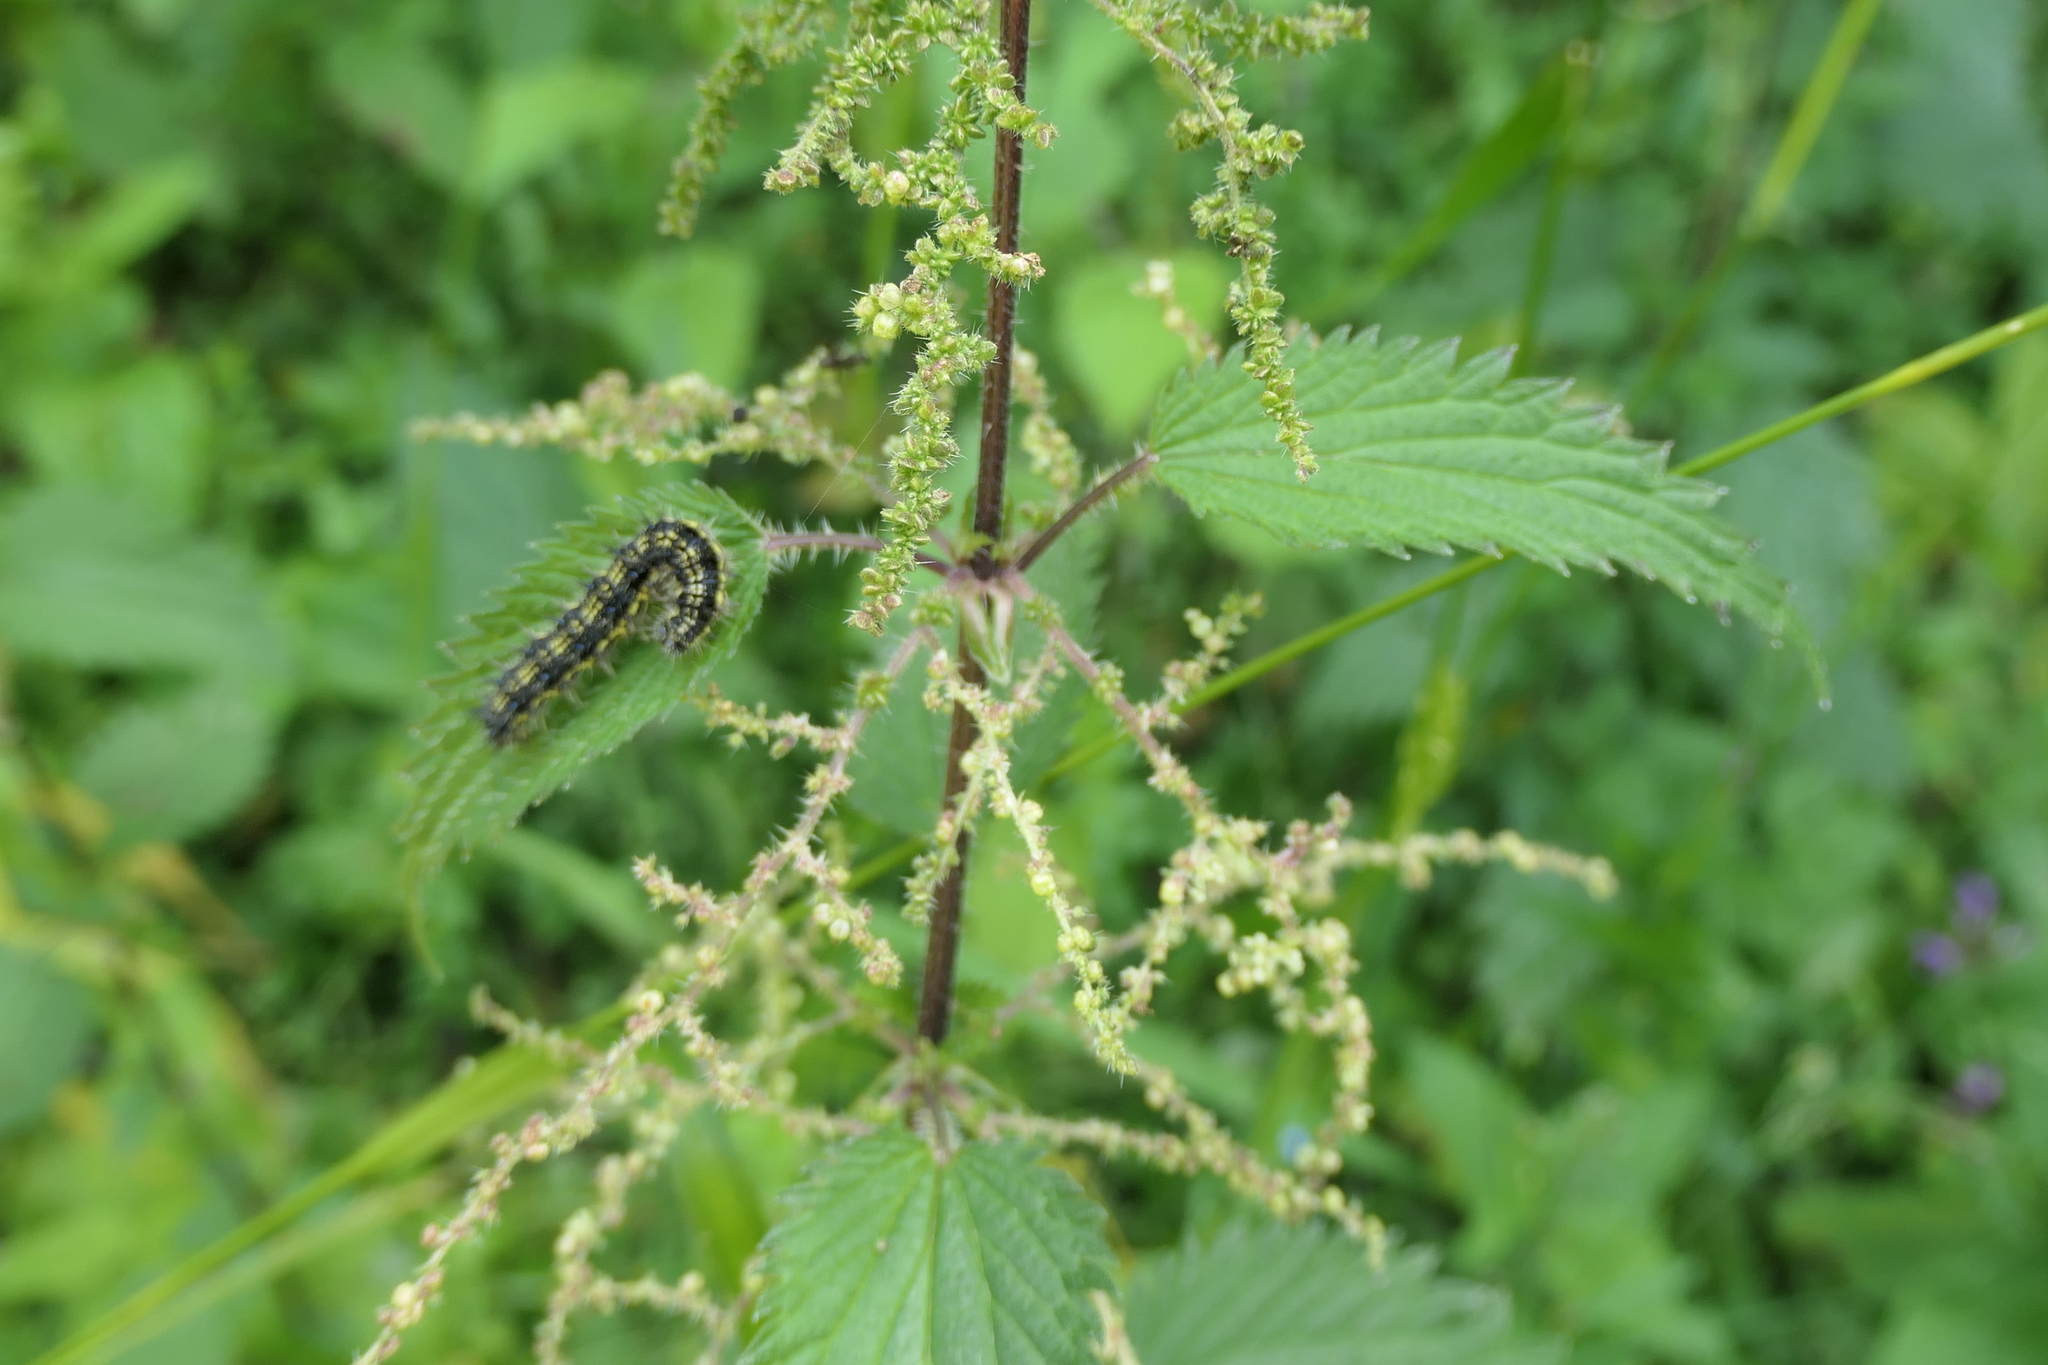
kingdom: Plantae
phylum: Tracheophyta
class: Magnoliopsida
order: Rosales
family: Urticaceae
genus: Urtica
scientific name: Urtica dioica
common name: Common nettle
